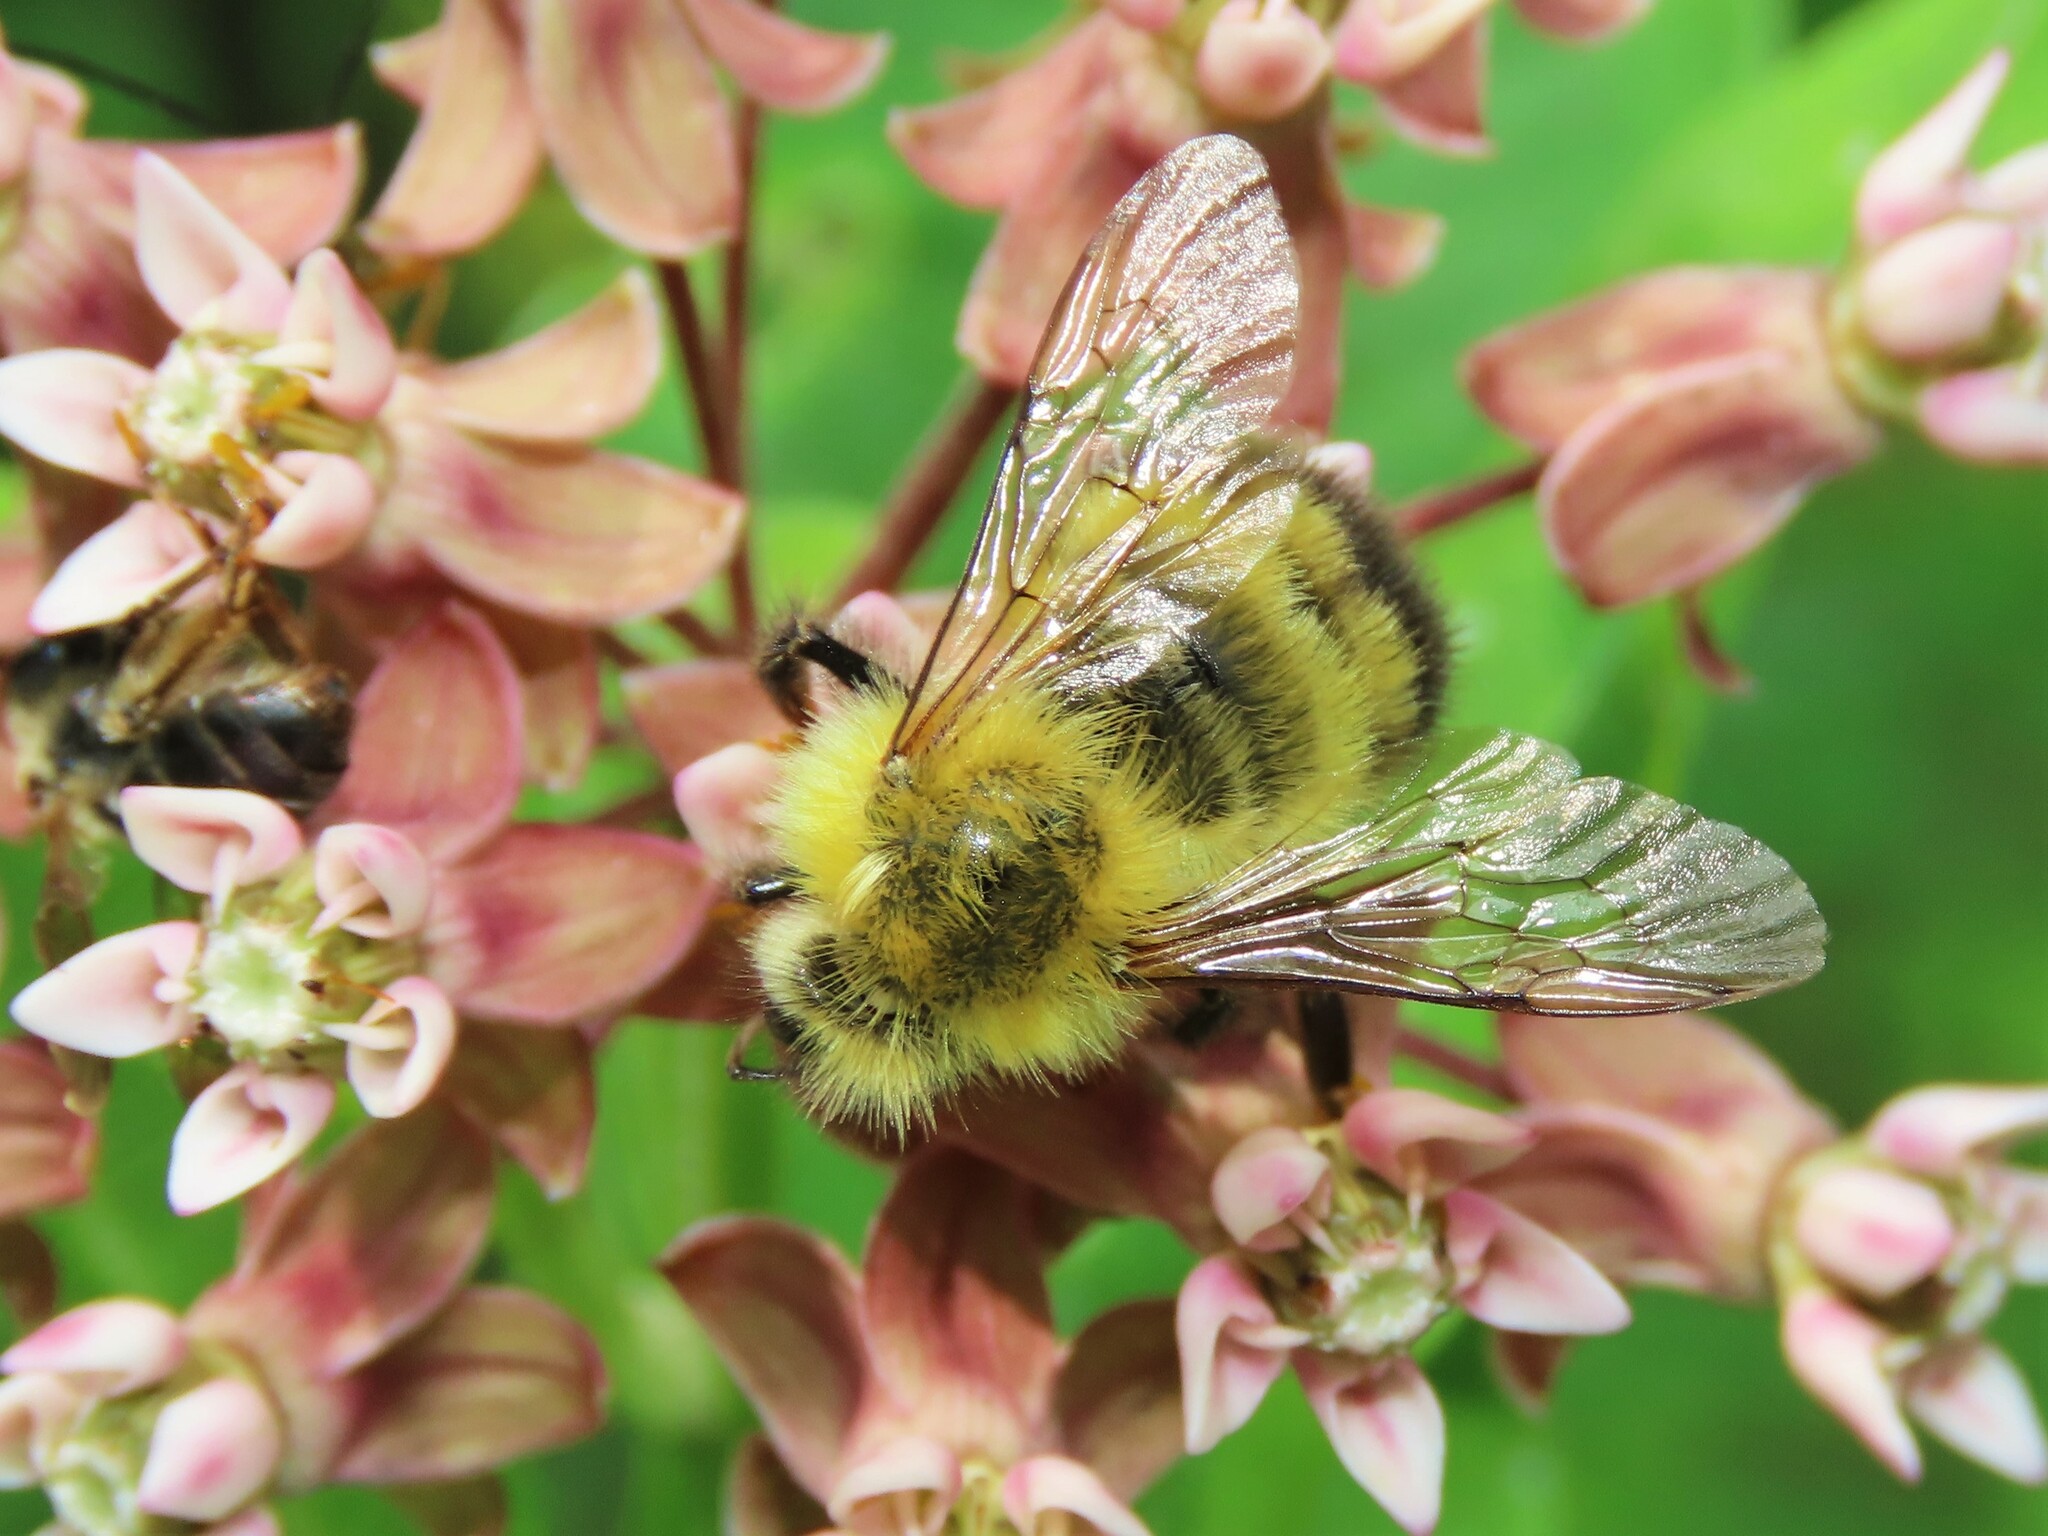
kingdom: Animalia
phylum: Arthropoda
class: Insecta
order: Hymenoptera
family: Apidae
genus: Bombus
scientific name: Bombus perplexus
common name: Confusing bumble bee
